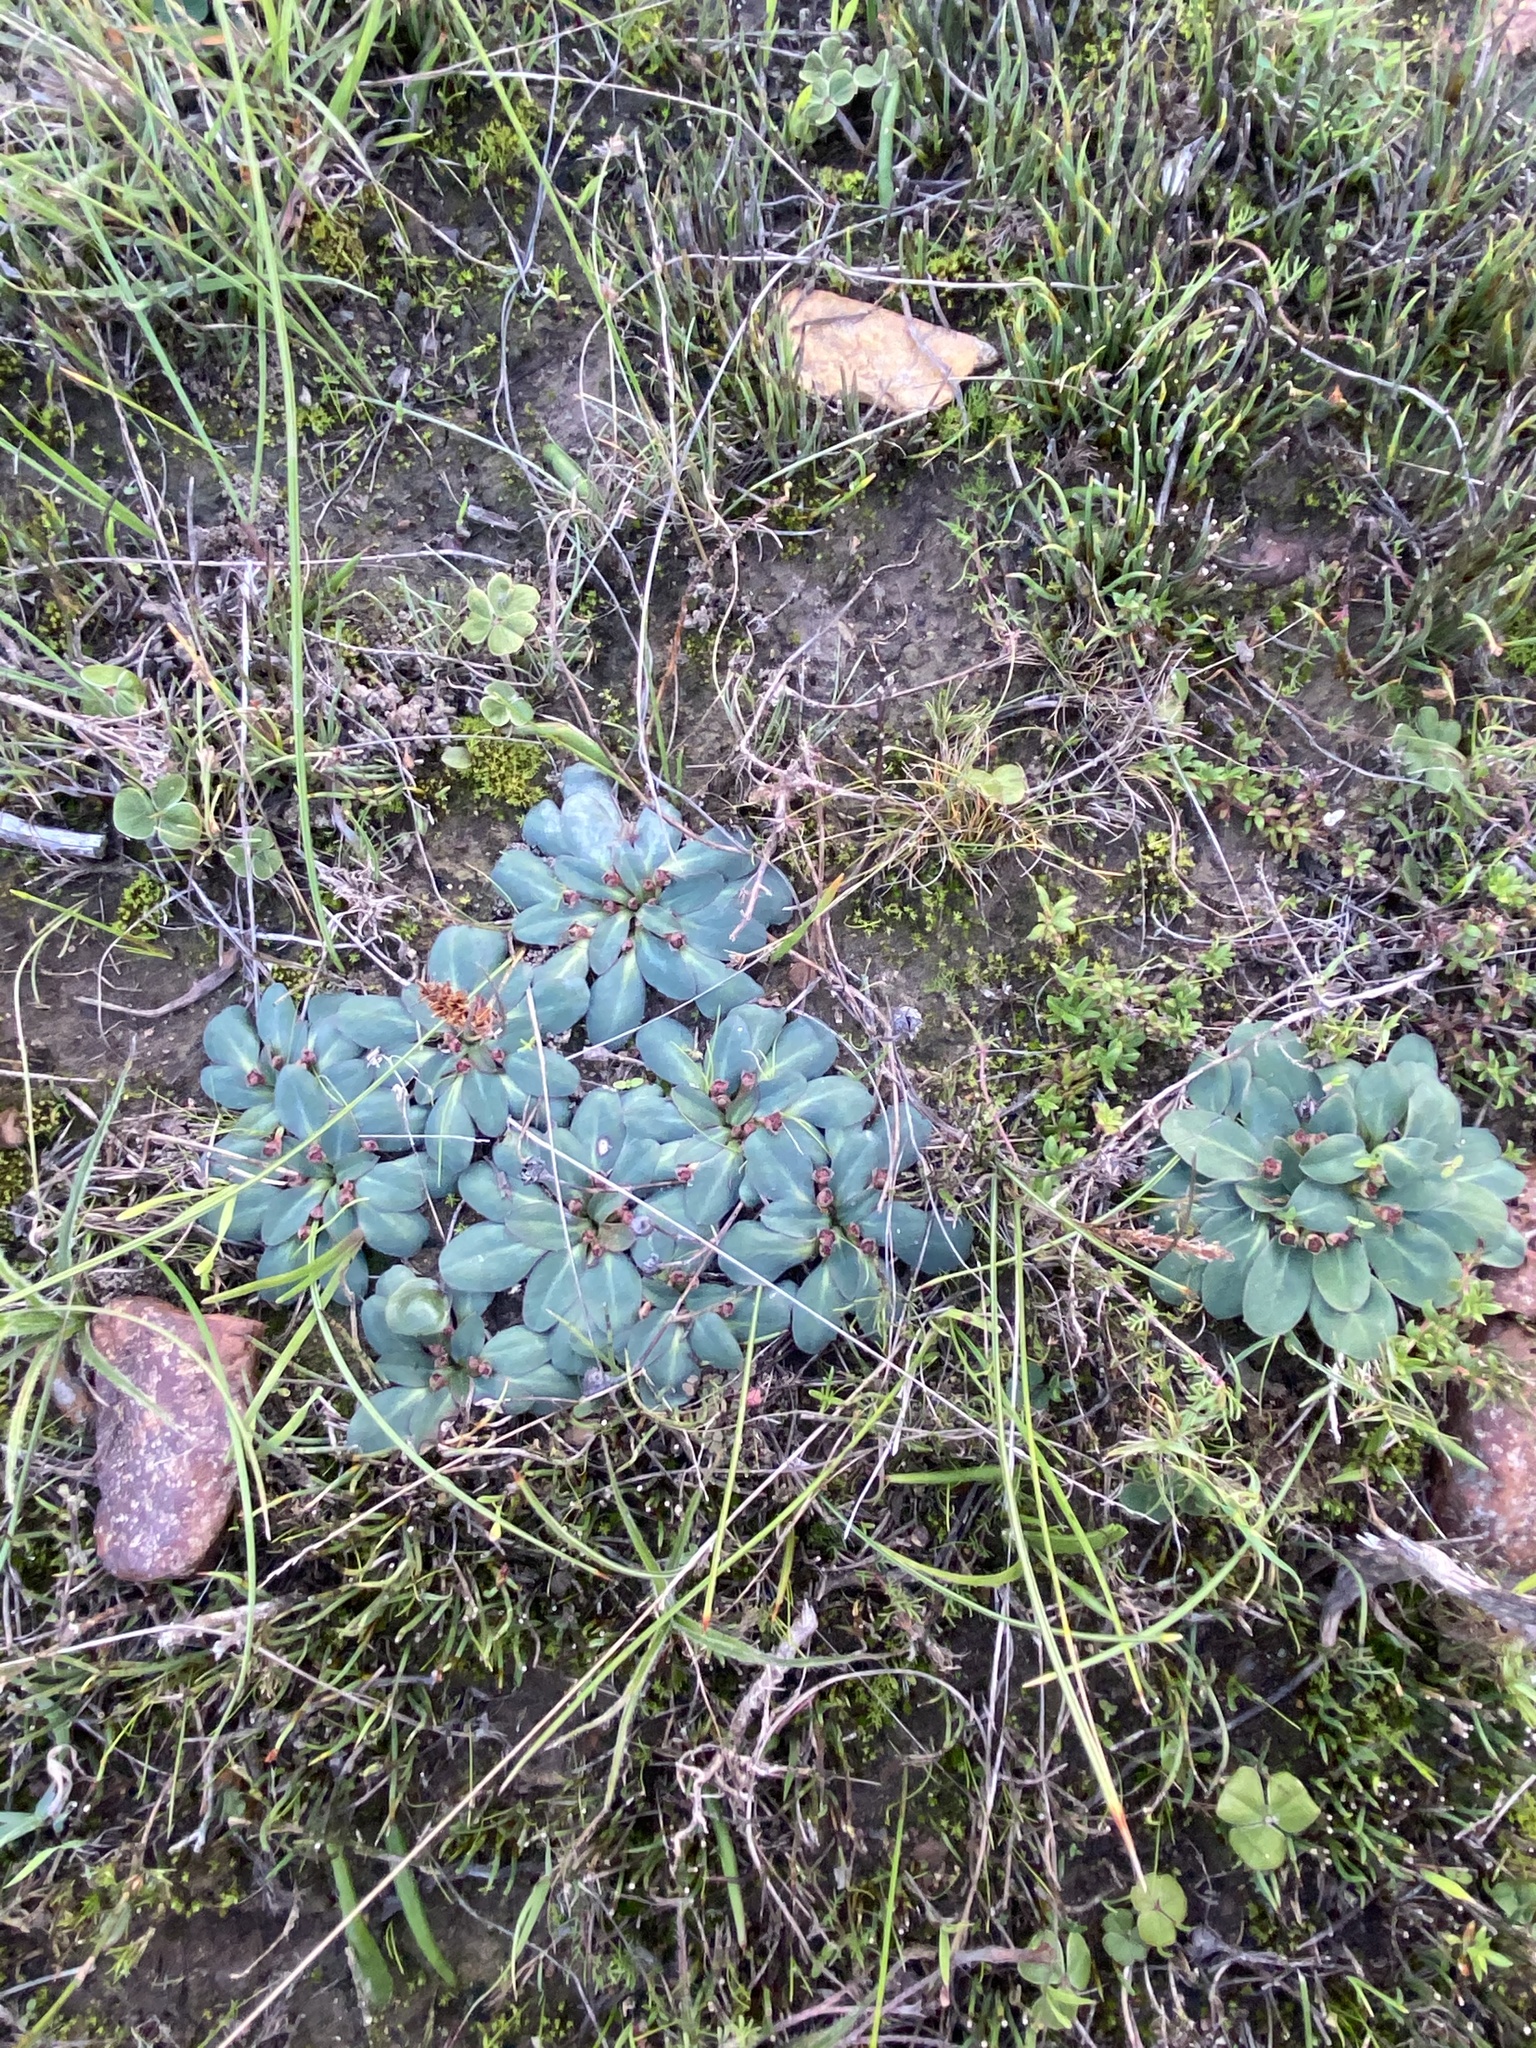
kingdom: Plantae
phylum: Tracheophyta
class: Magnoliopsida
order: Malpighiales
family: Euphorbiaceae
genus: Euphorbia
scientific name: Euphorbia ecklonii
